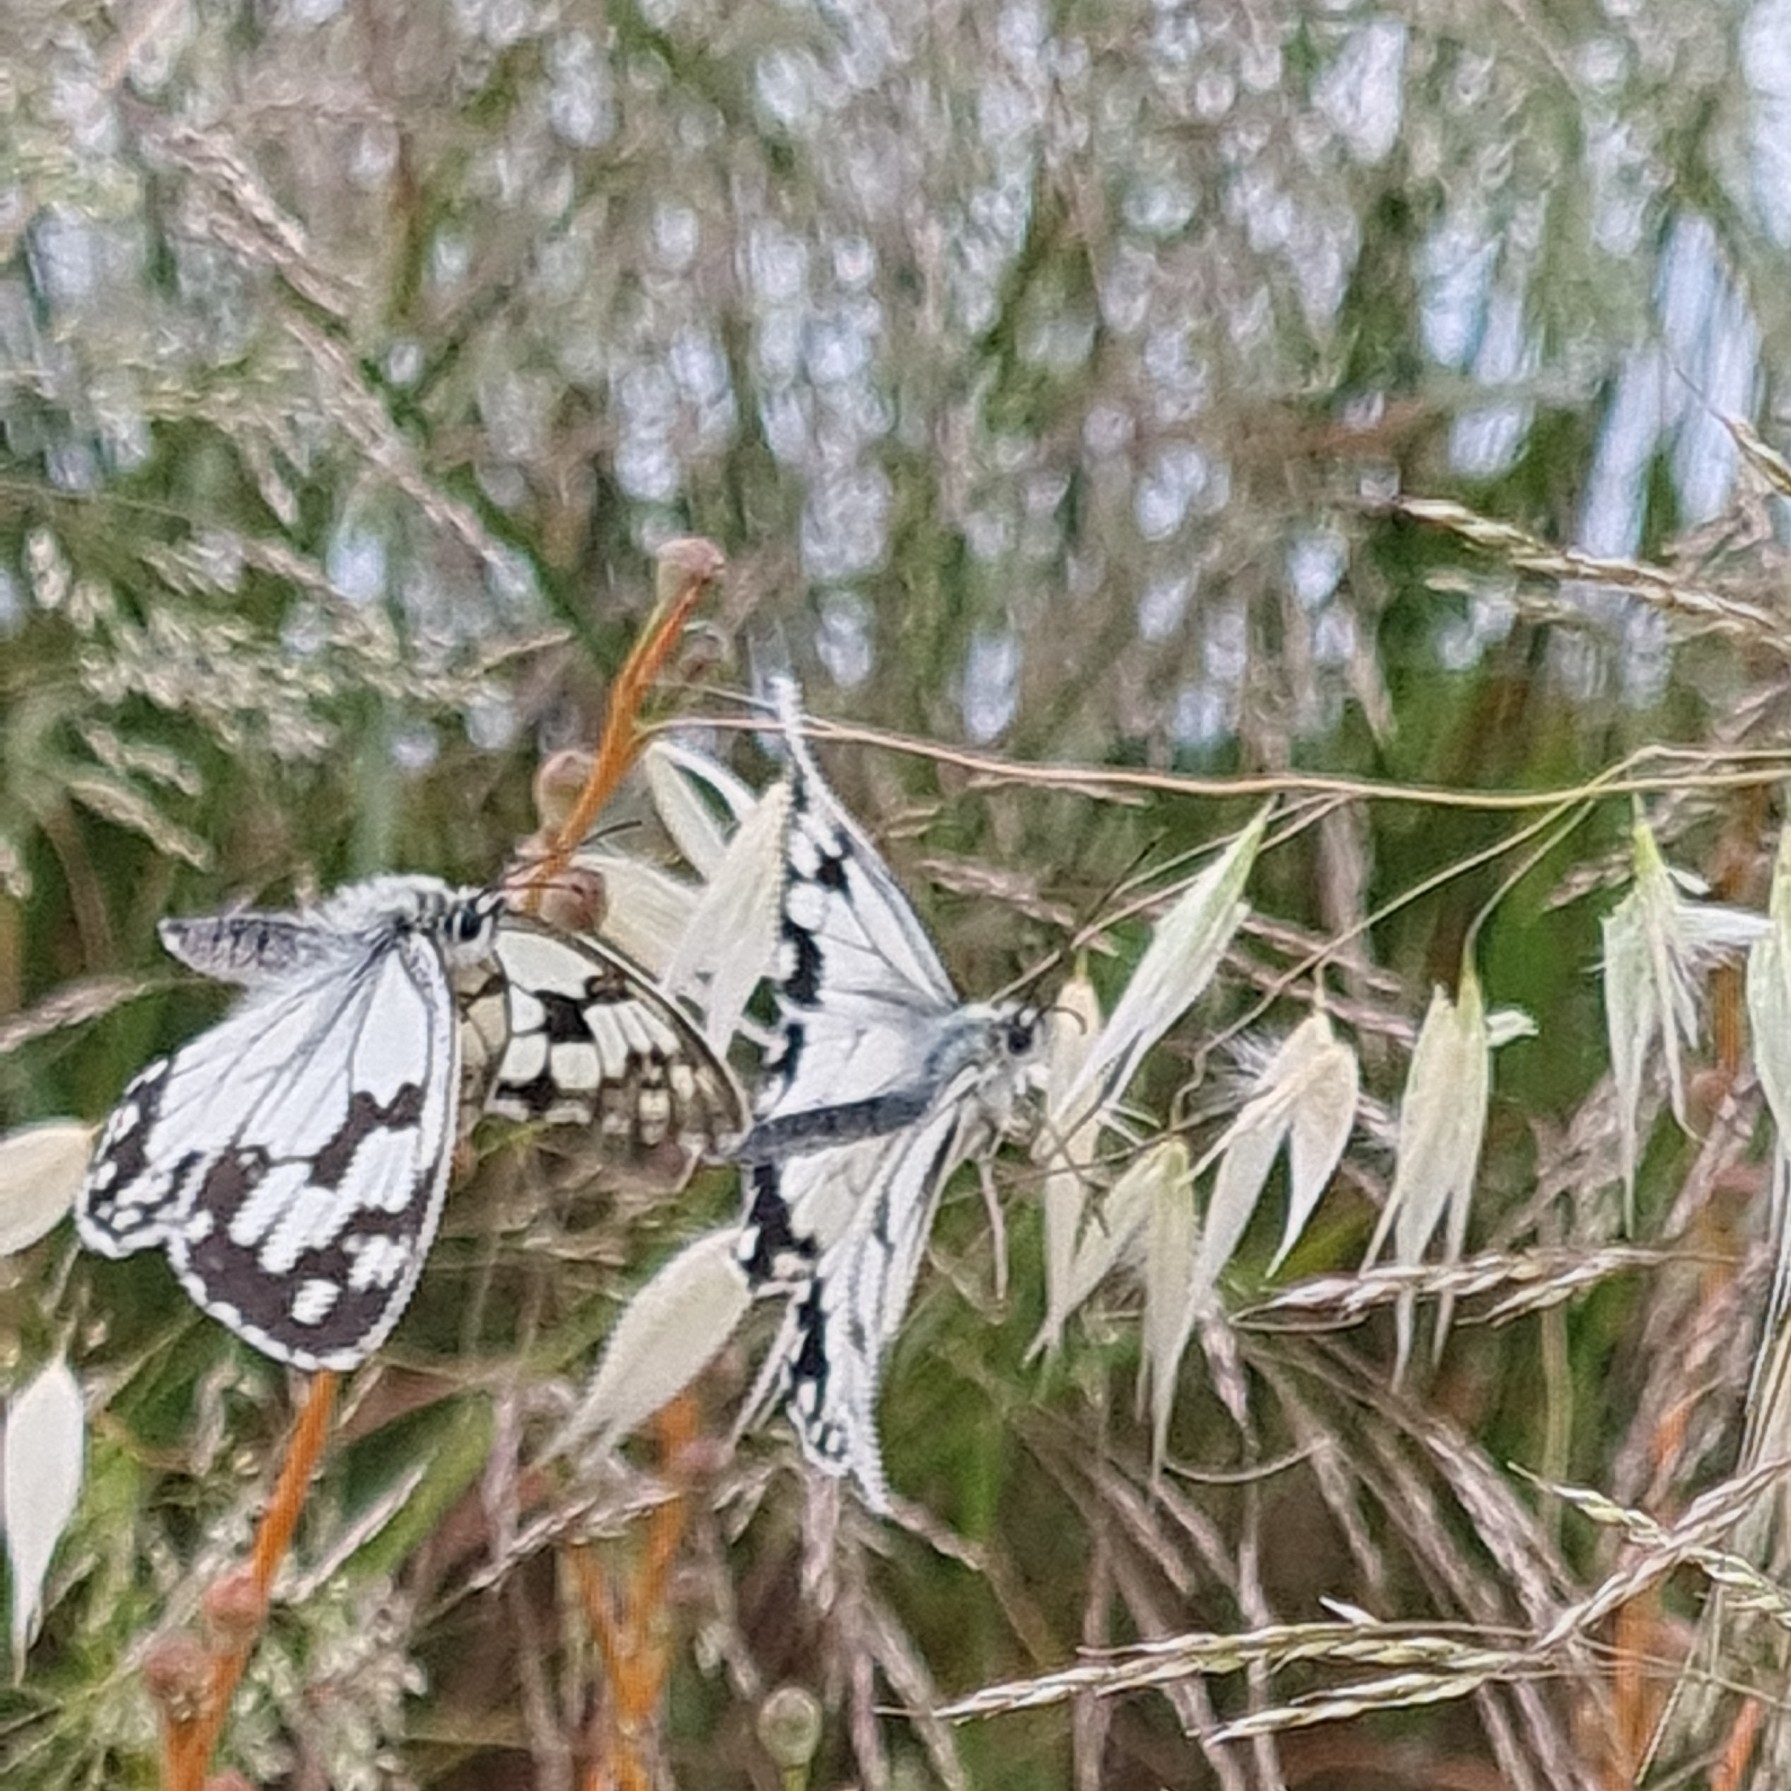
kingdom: Animalia
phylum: Arthropoda
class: Insecta
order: Lepidoptera
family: Nymphalidae
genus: Melanargia
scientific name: Melanargia lachesis
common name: Iberian marbled white
